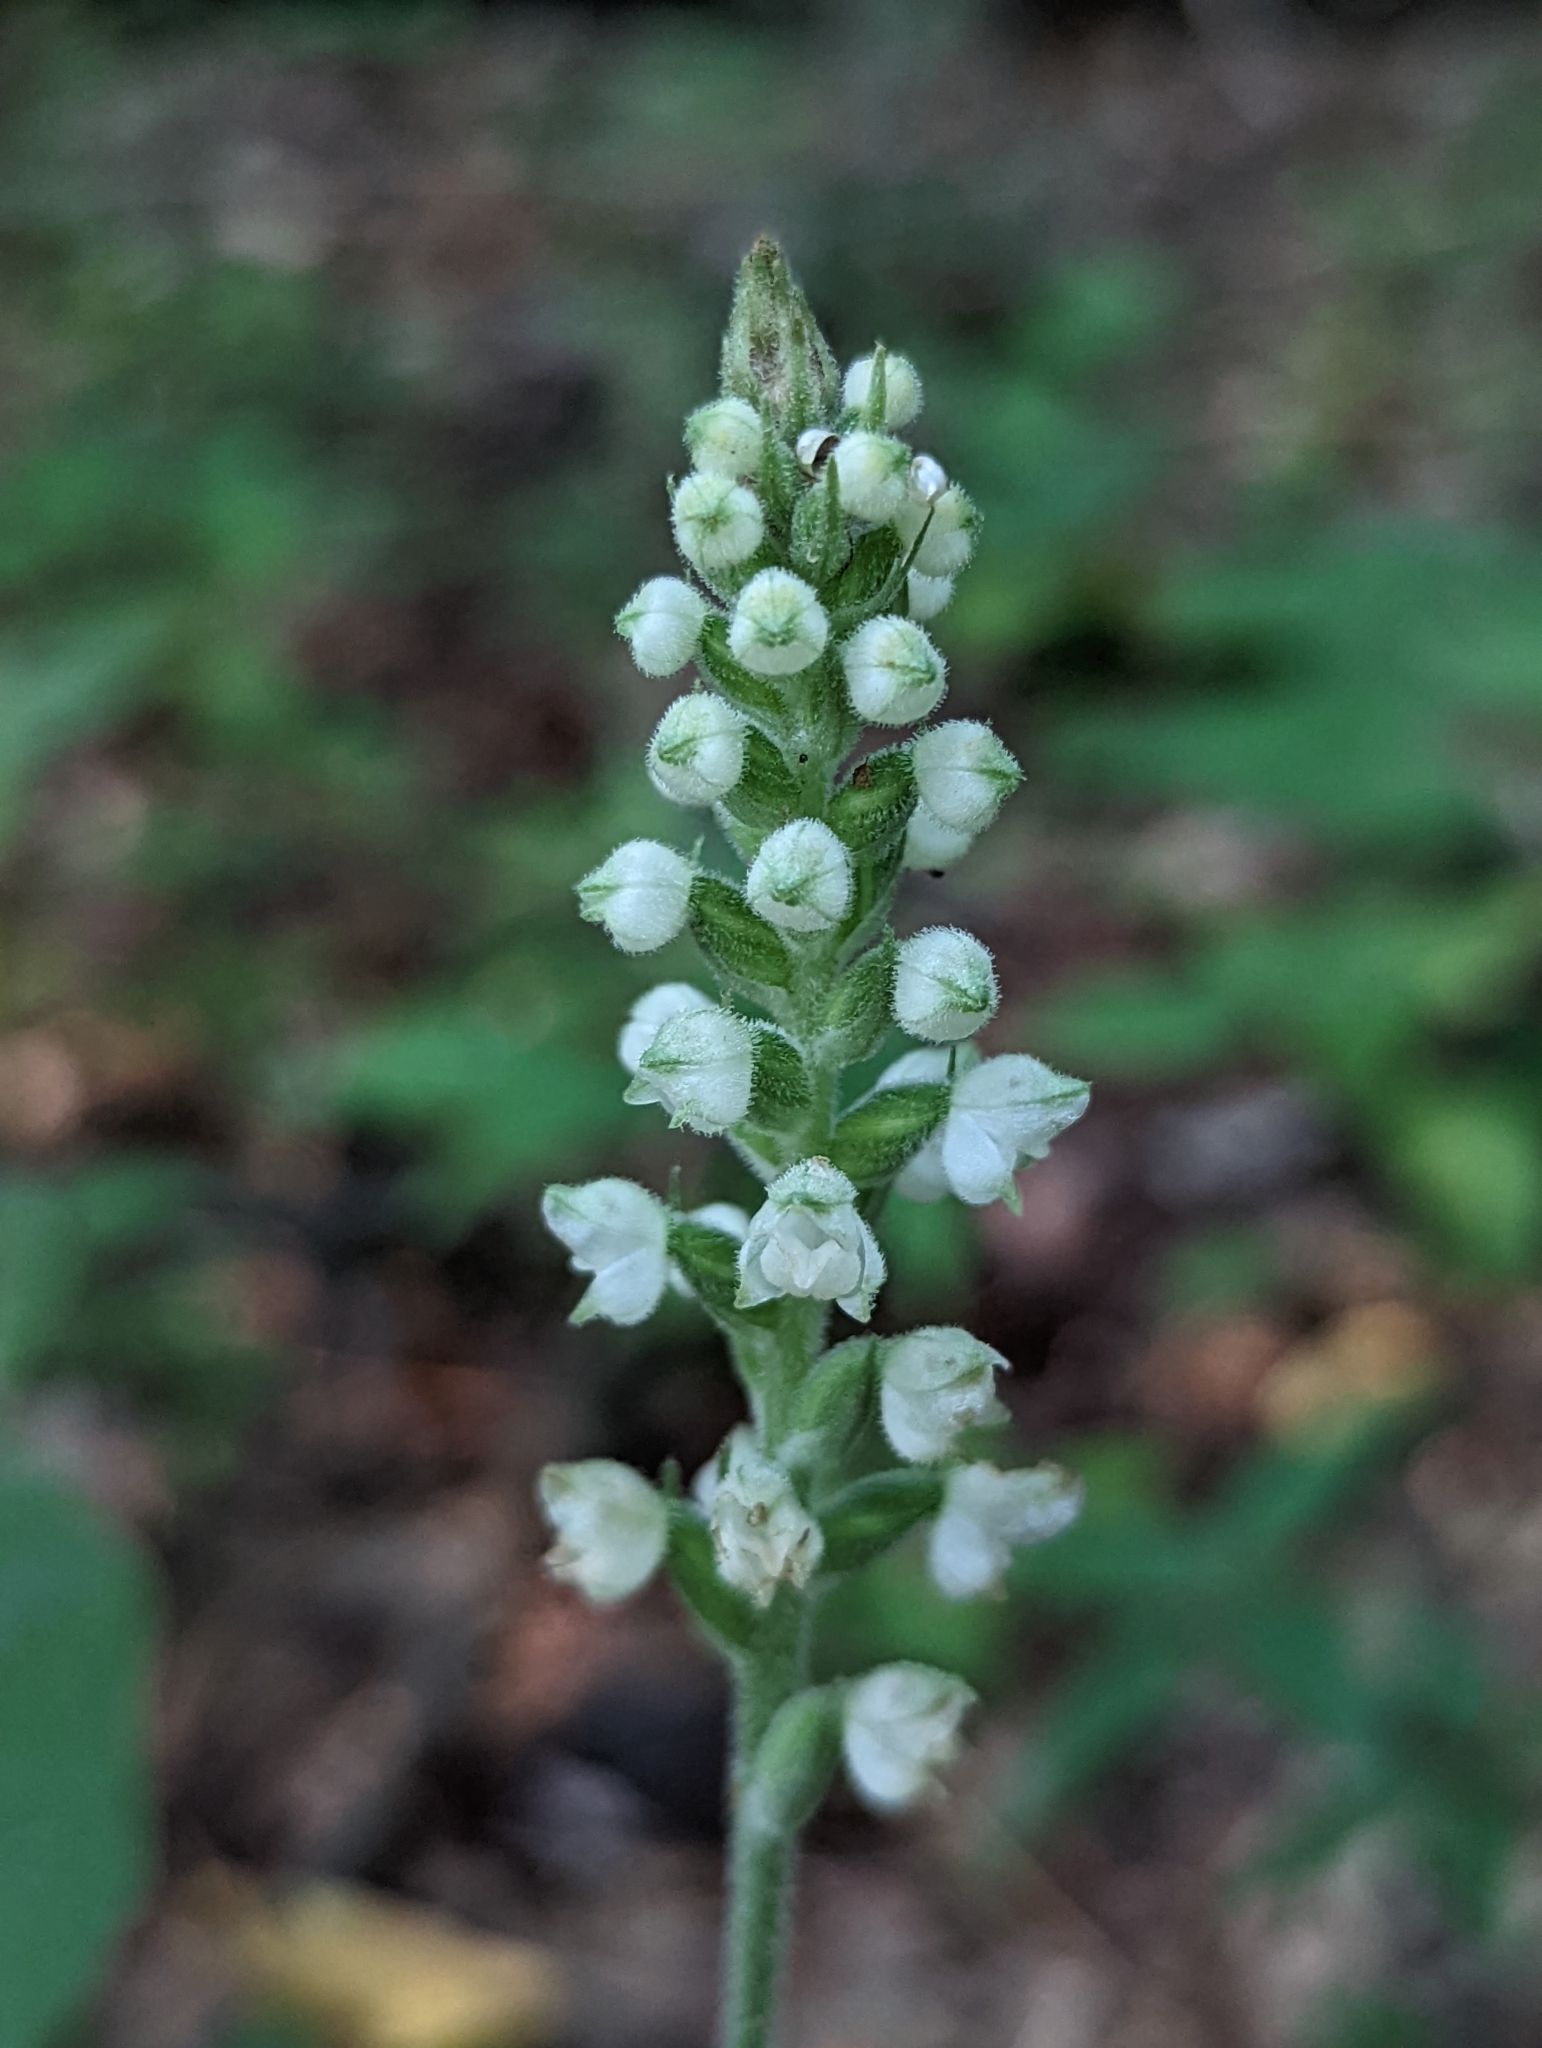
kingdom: Plantae
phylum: Tracheophyta
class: Liliopsida
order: Asparagales
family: Orchidaceae
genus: Goodyera
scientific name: Goodyera pubescens
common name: Downy rattlesnake-plantain
